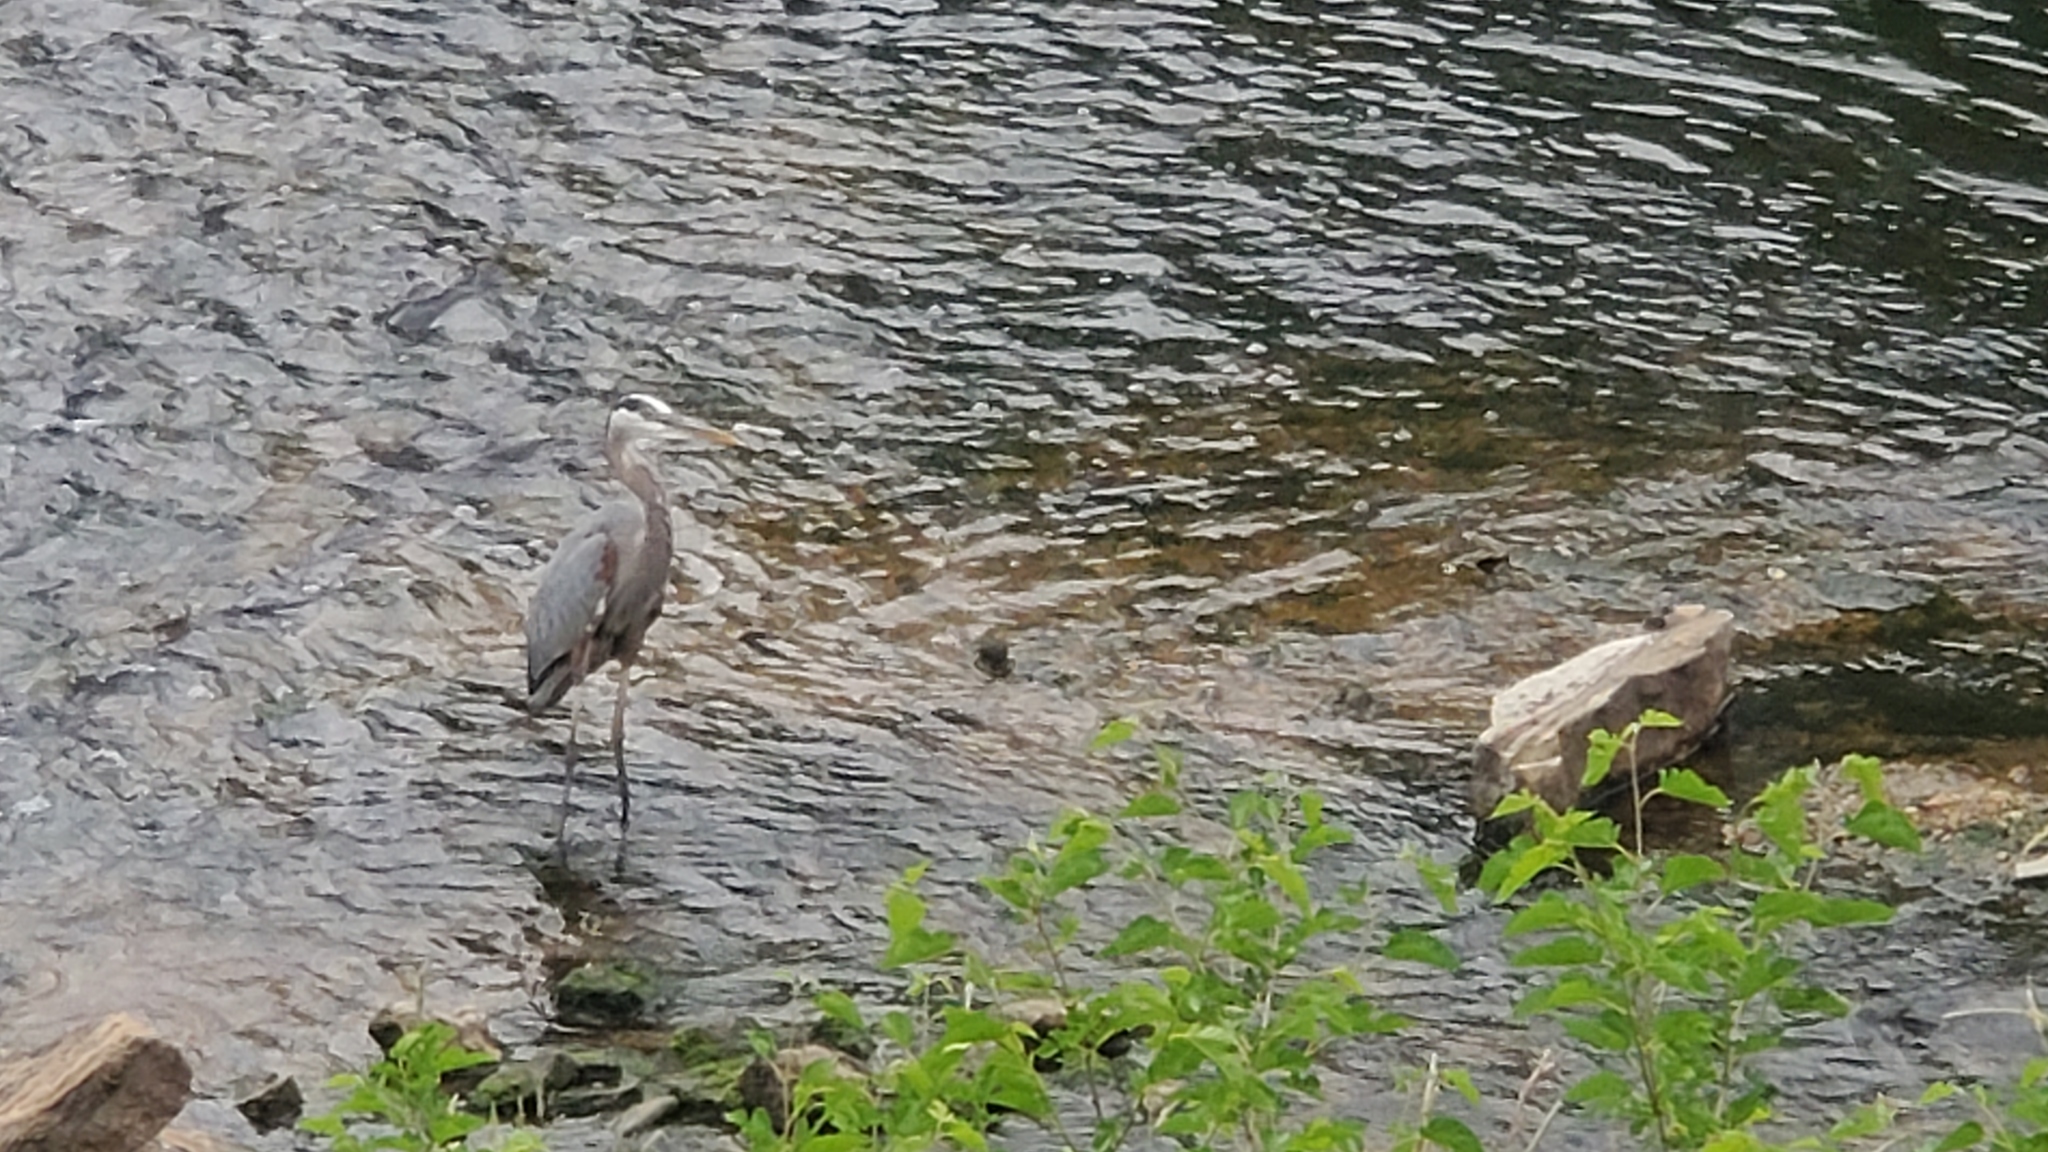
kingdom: Animalia
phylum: Chordata
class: Aves
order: Pelecaniformes
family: Ardeidae
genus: Ardea
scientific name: Ardea herodias
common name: Great blue heron
